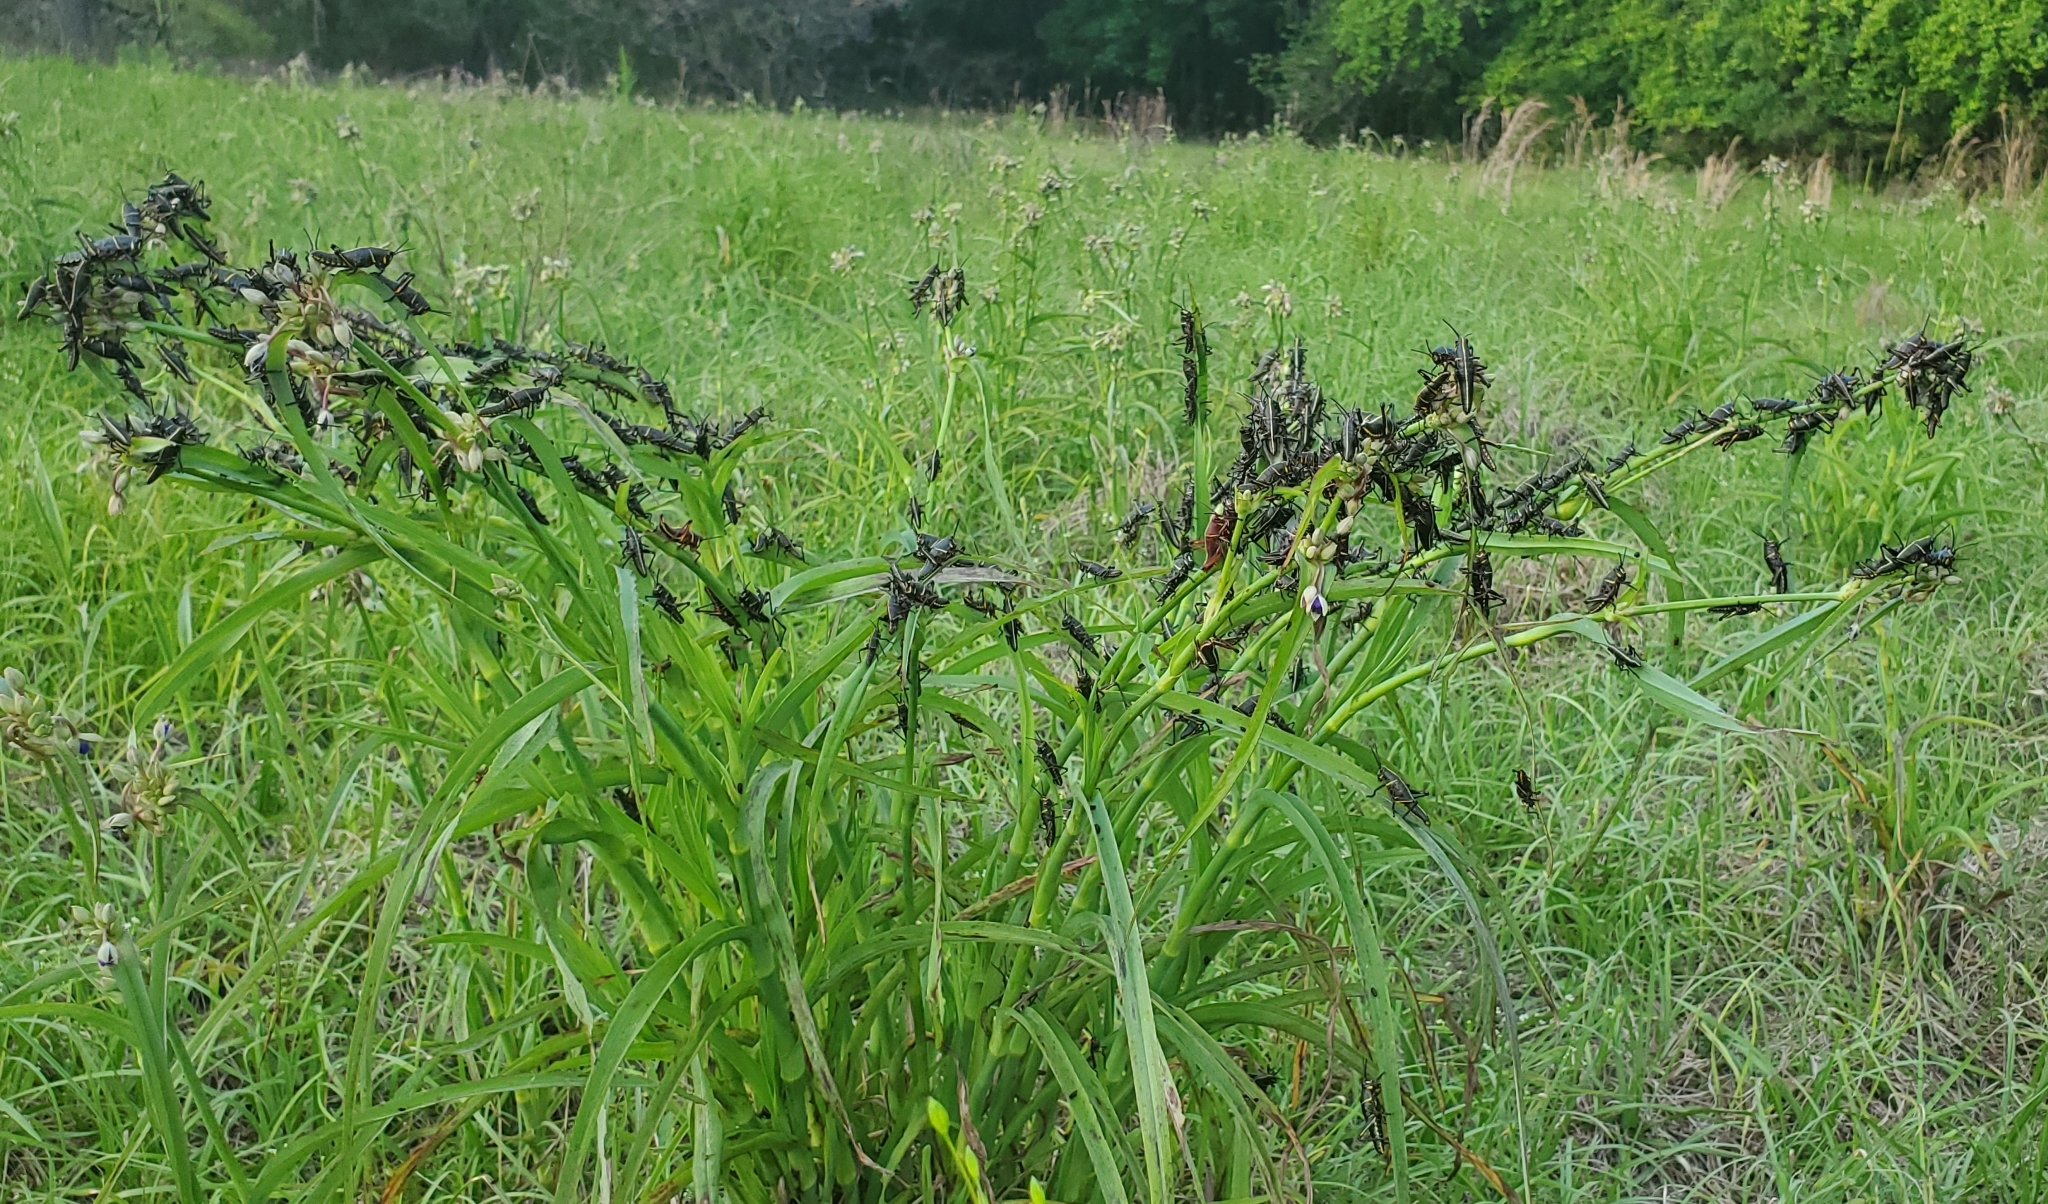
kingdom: Animalia
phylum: Arthropoda
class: Insecta
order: Orthoptera
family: Romaleidae
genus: Romalea
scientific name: Romalea microptera
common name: Eastern lubber grasshopper
